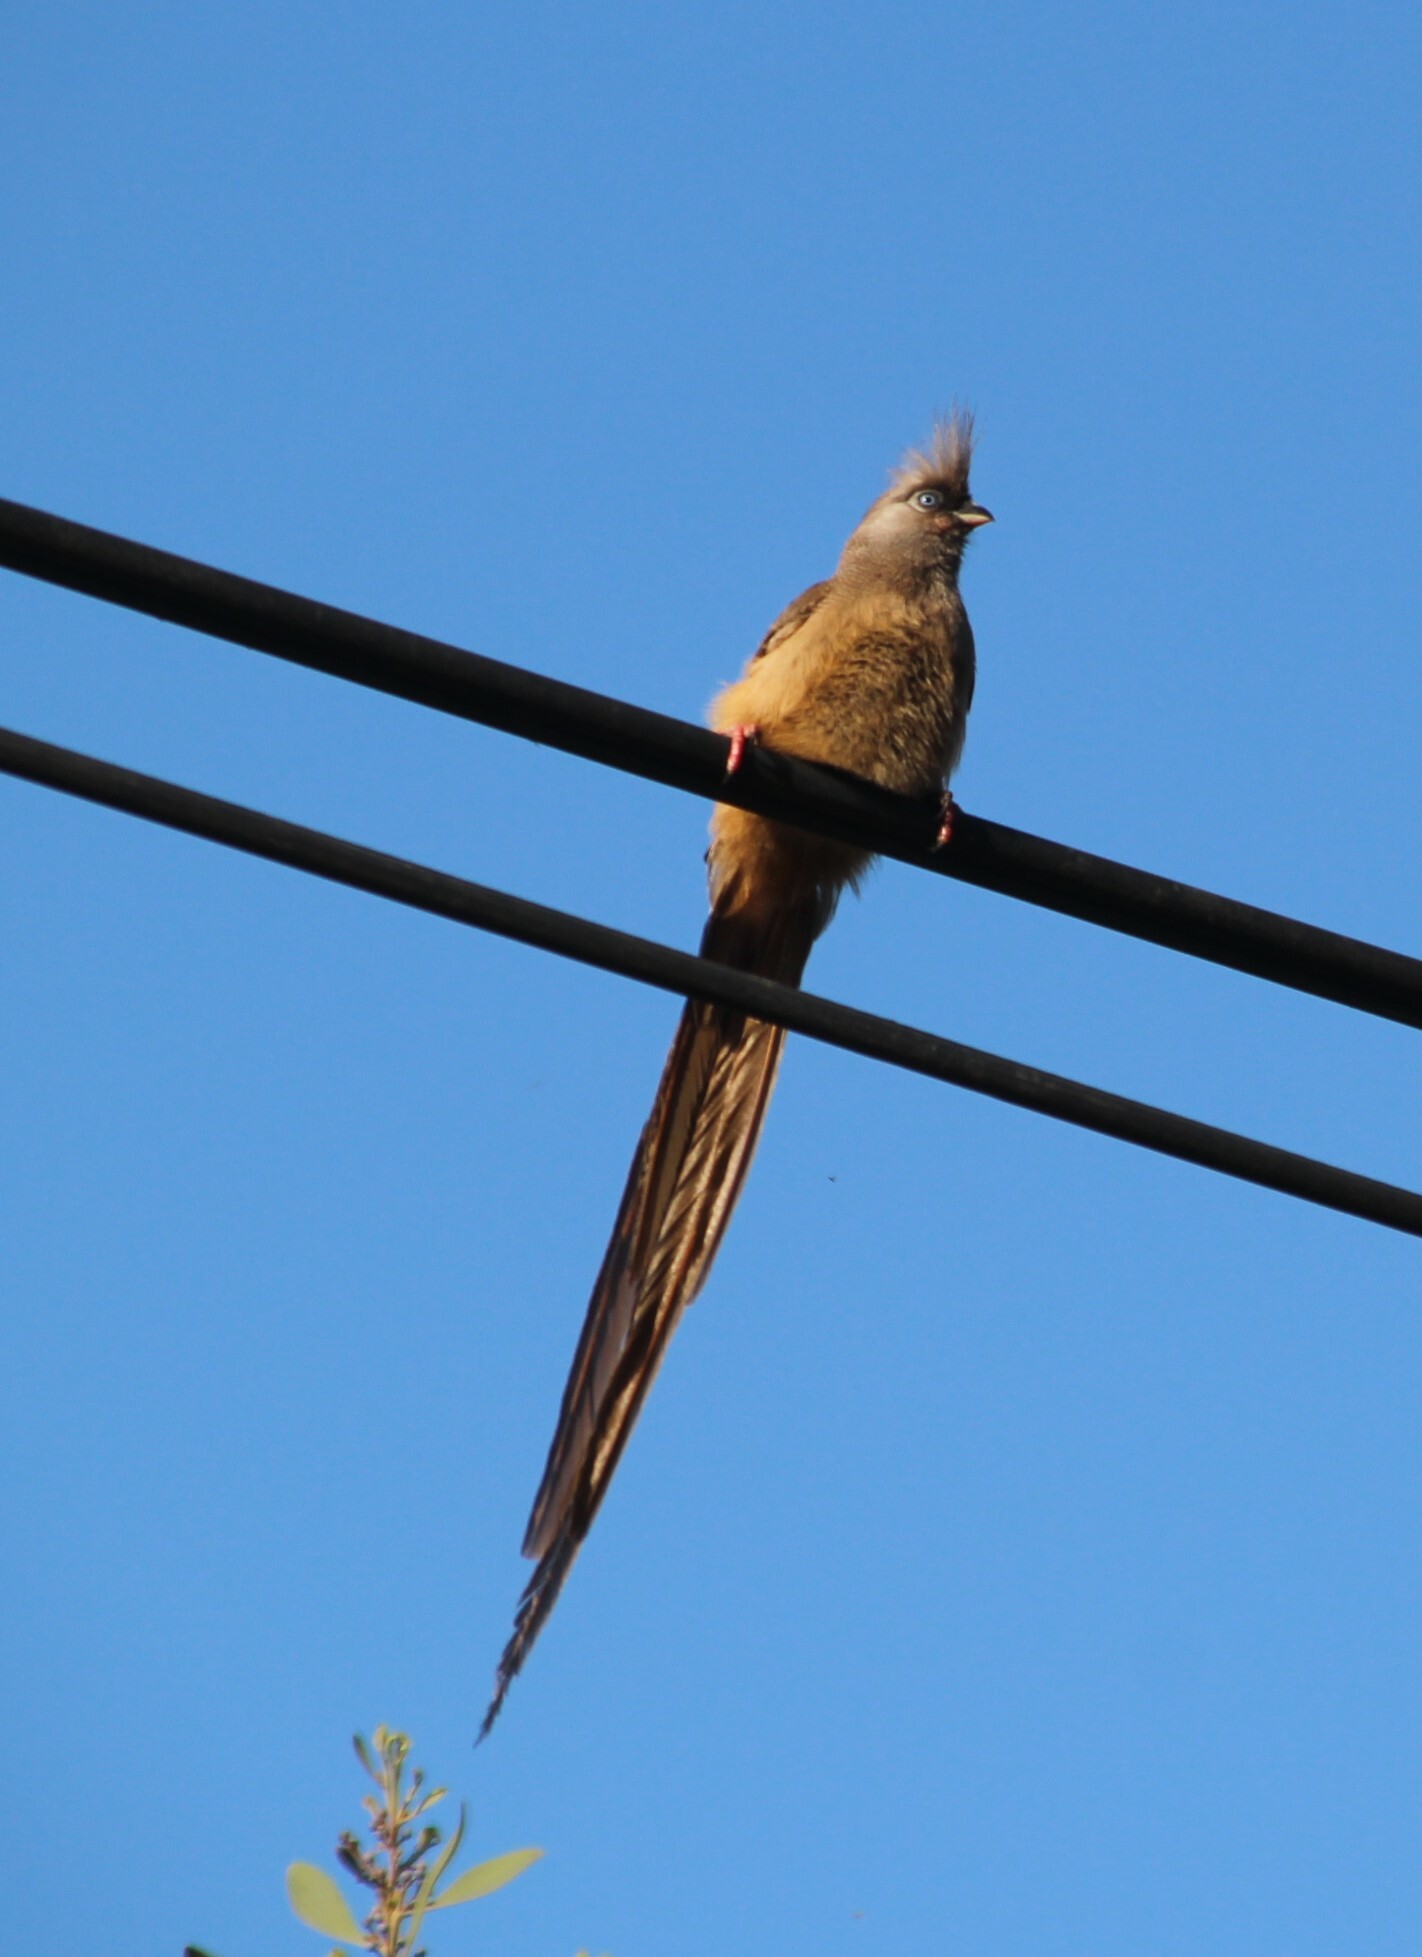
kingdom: Animalia
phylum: Chordata
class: Aves
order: Coliiformes
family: Coliidae
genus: Colius
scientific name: Colius striatus
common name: Speckled mousebird
